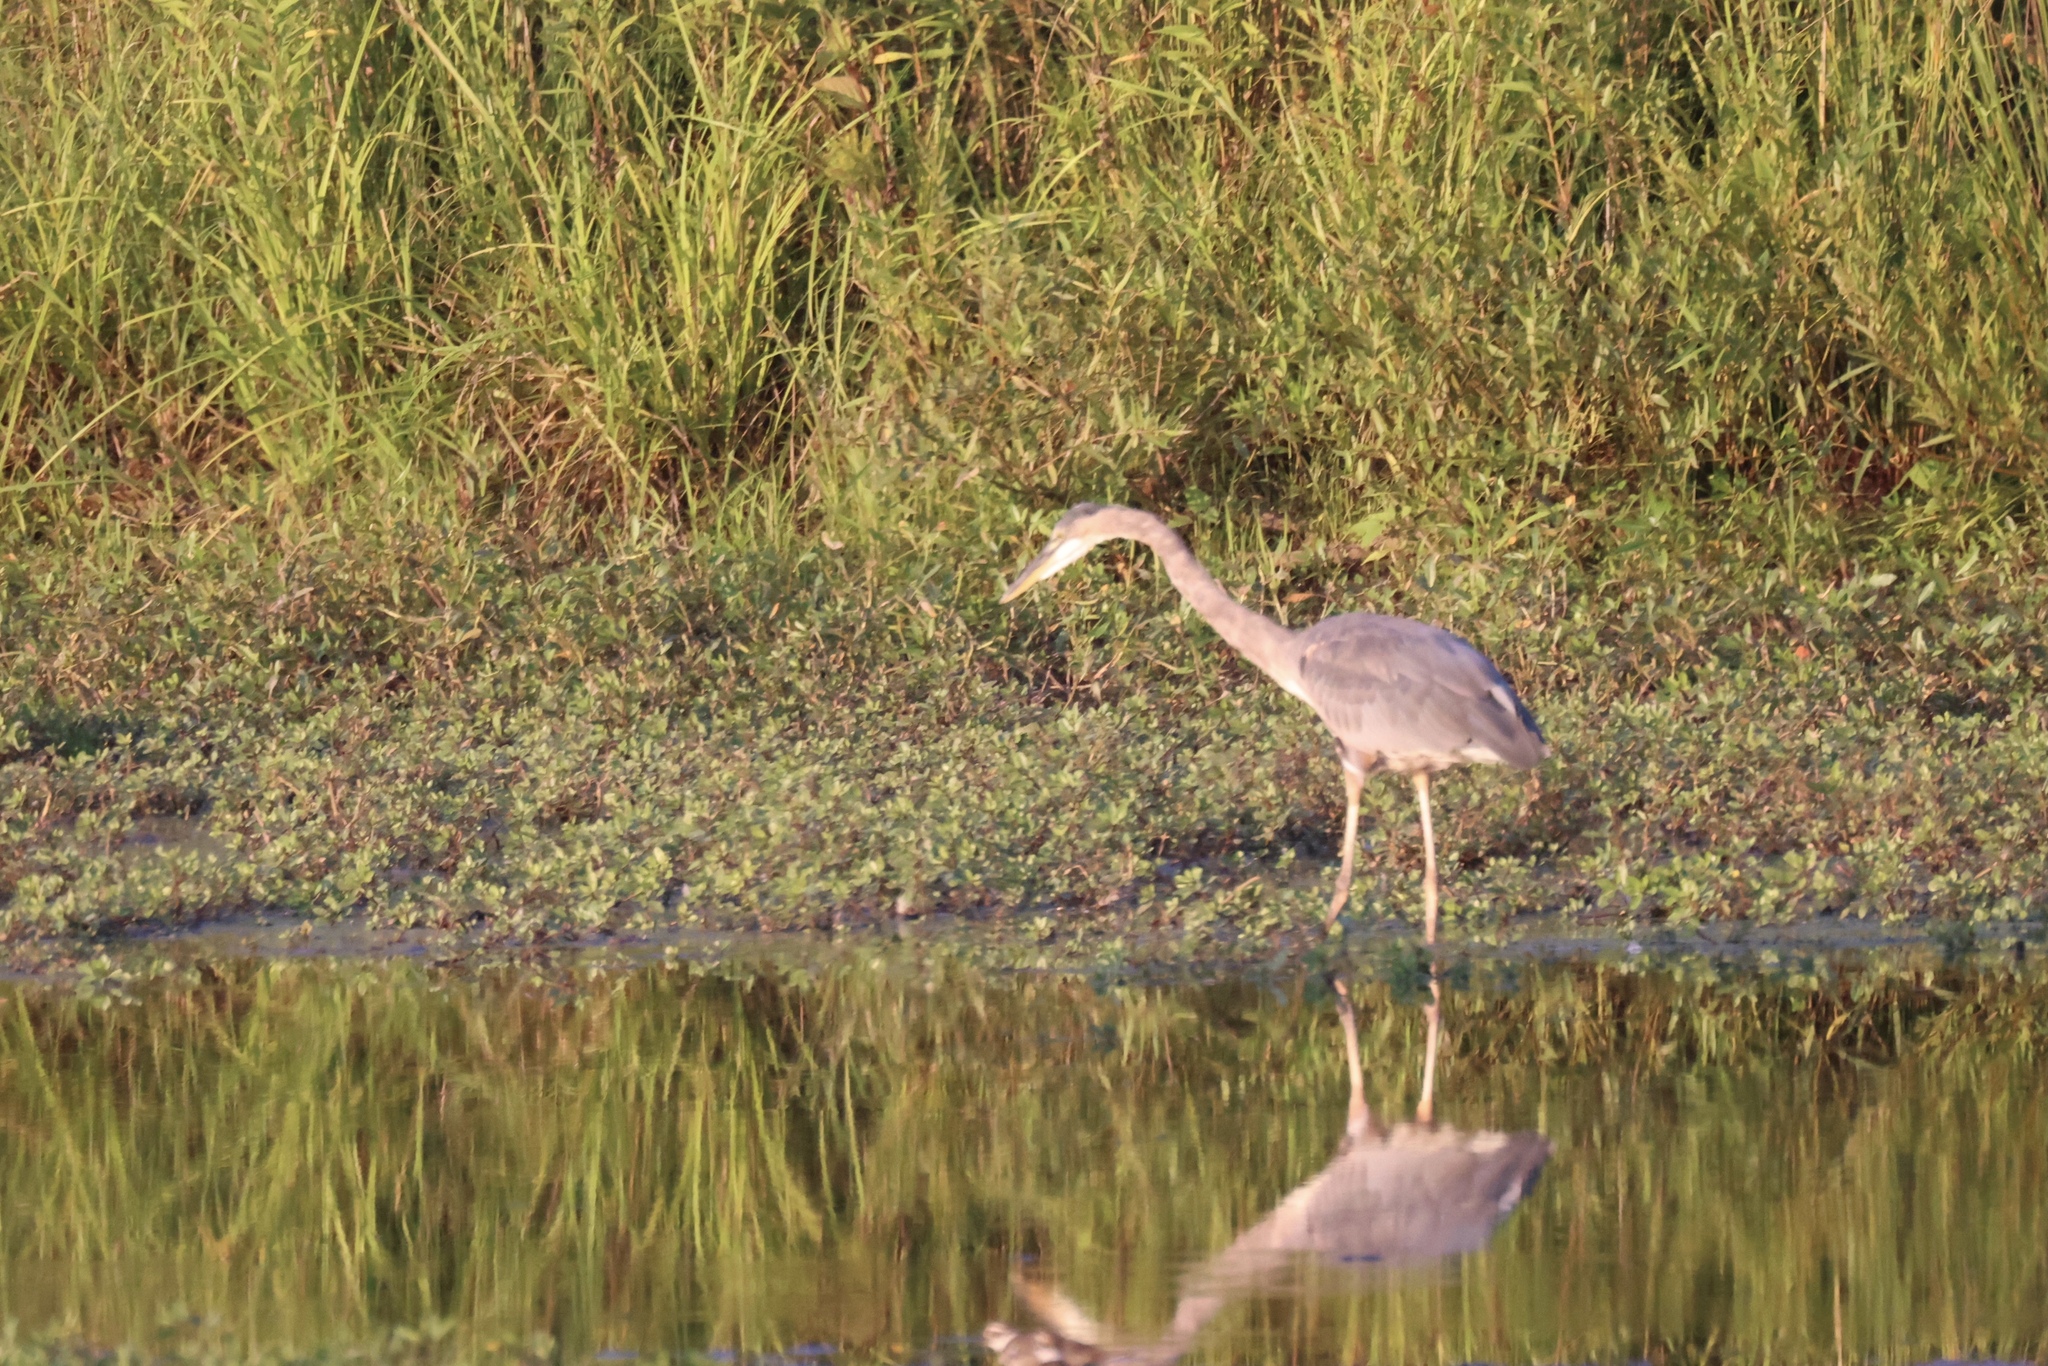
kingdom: Animalia
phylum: Chordata
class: Aves
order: Pelecaniformes
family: Ardeidae
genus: Ardea
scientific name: Ardea herodias
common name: Great blue heron
